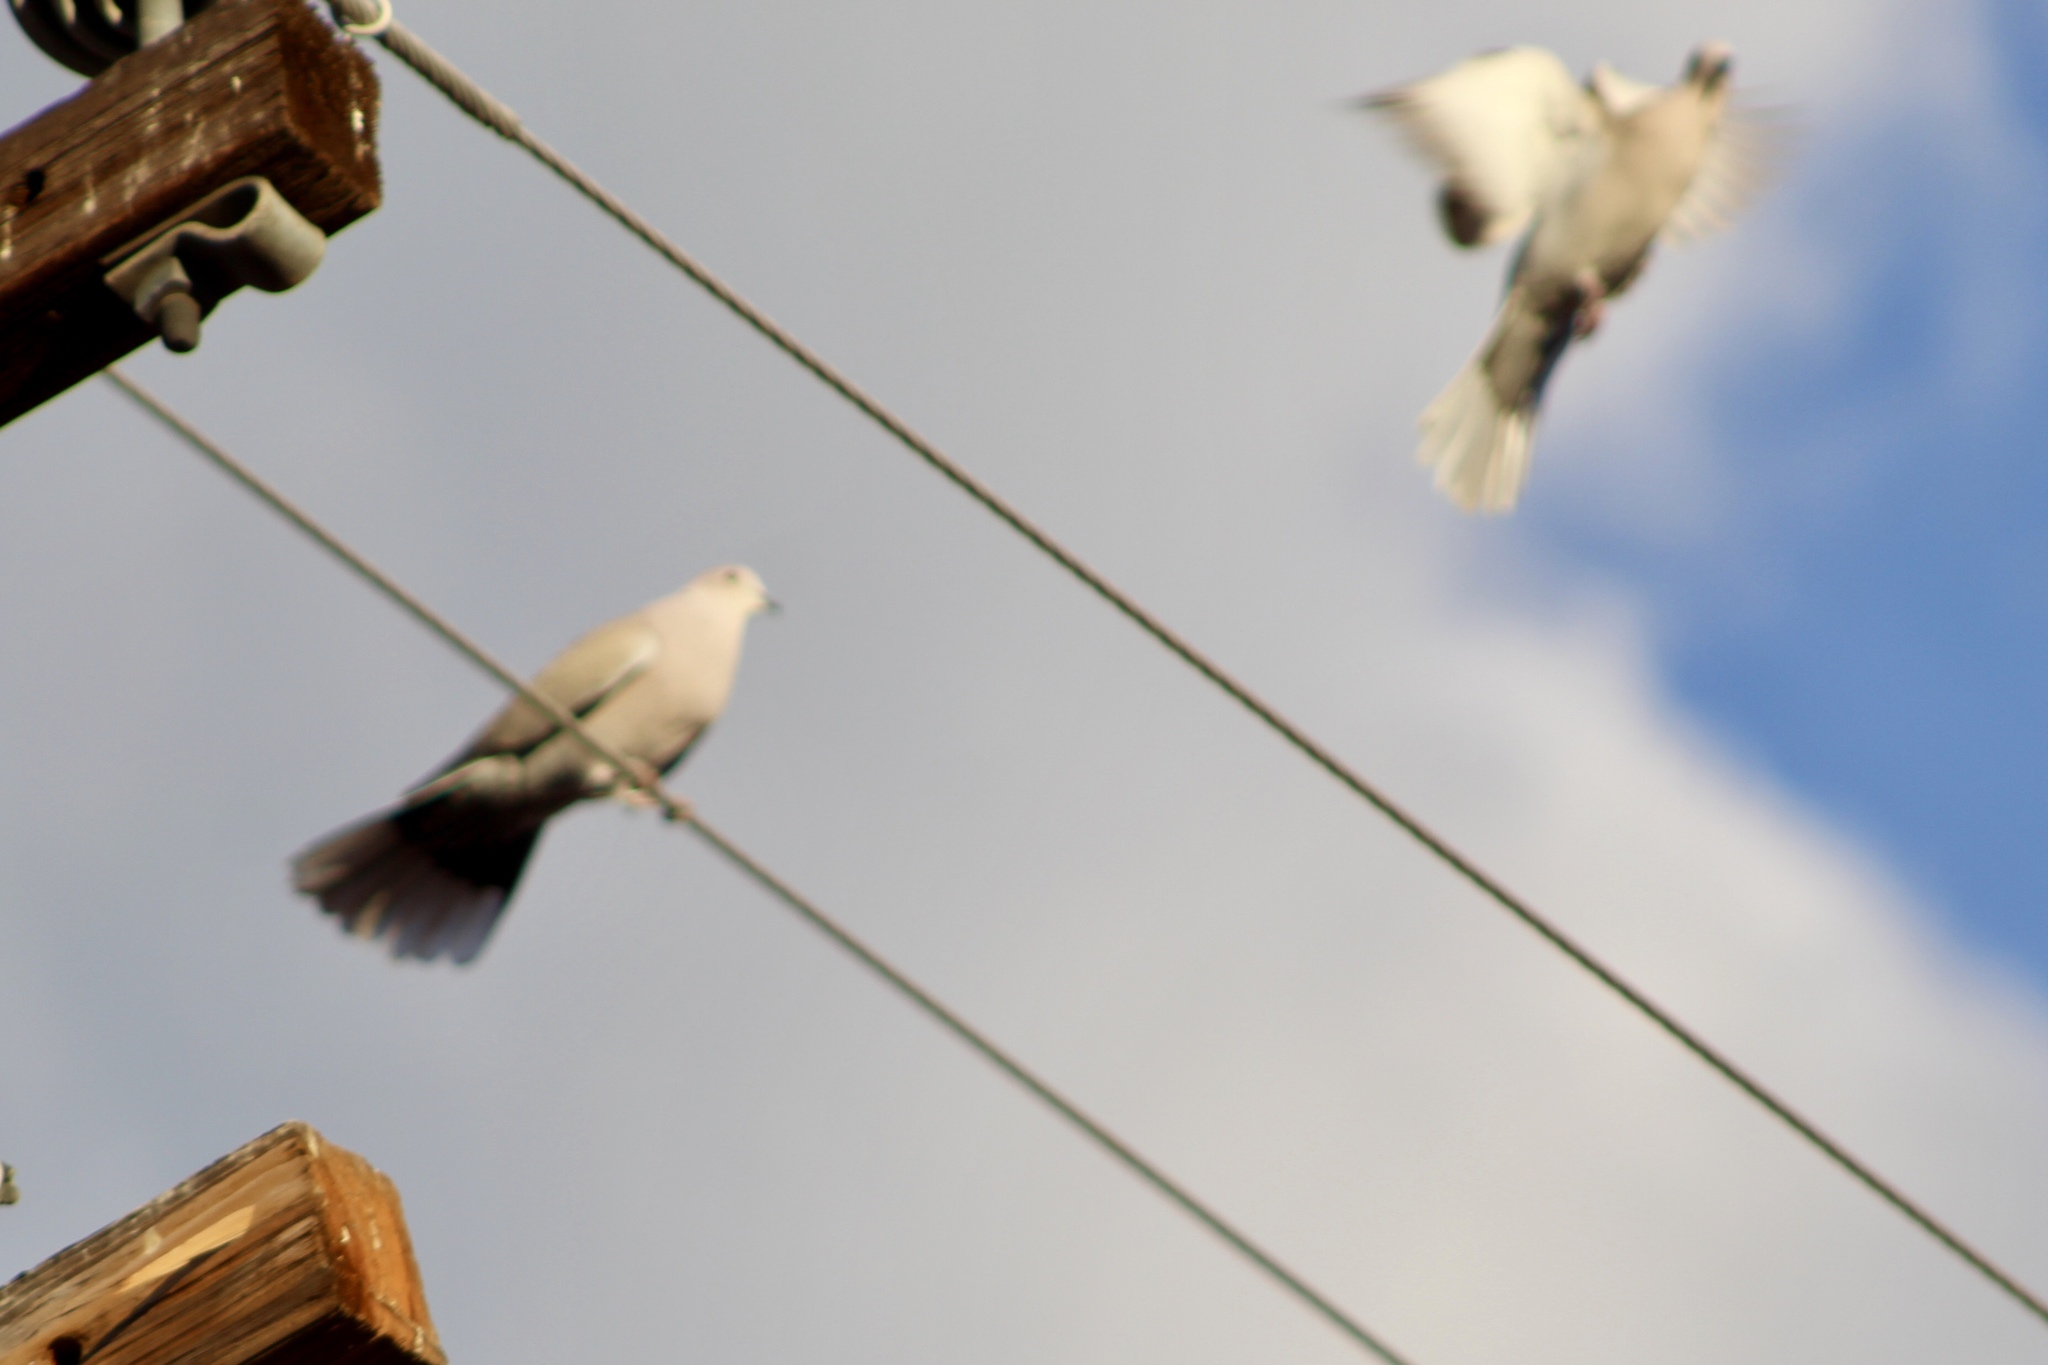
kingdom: Animalia
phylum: Chordata
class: Aves
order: Columbiformes
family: Columbidae
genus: Streptopelia
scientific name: Streptopelia decaocto
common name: Eurasian collared dove
